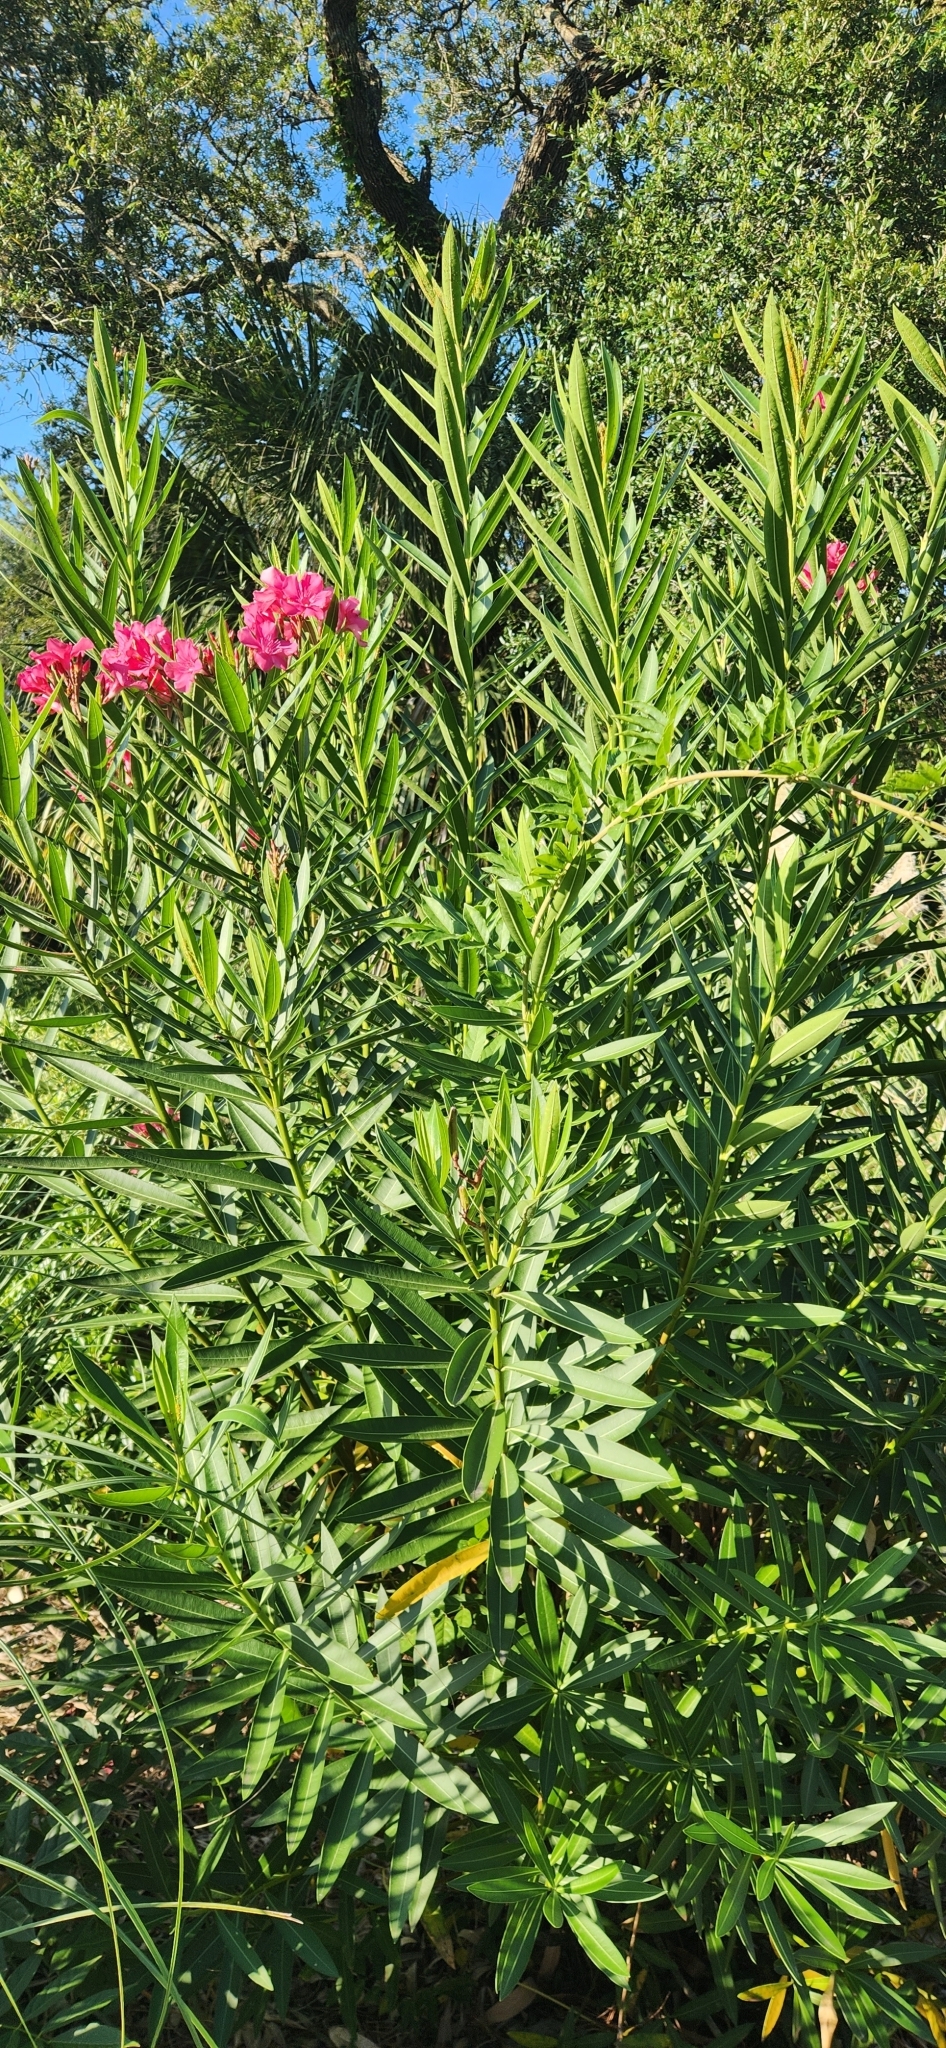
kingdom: Plantae
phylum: Tracheophyta
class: Magnoliopsida
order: Gentianales
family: Apocynaceae
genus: Nerium
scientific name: Nerium oleander
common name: Oleander
